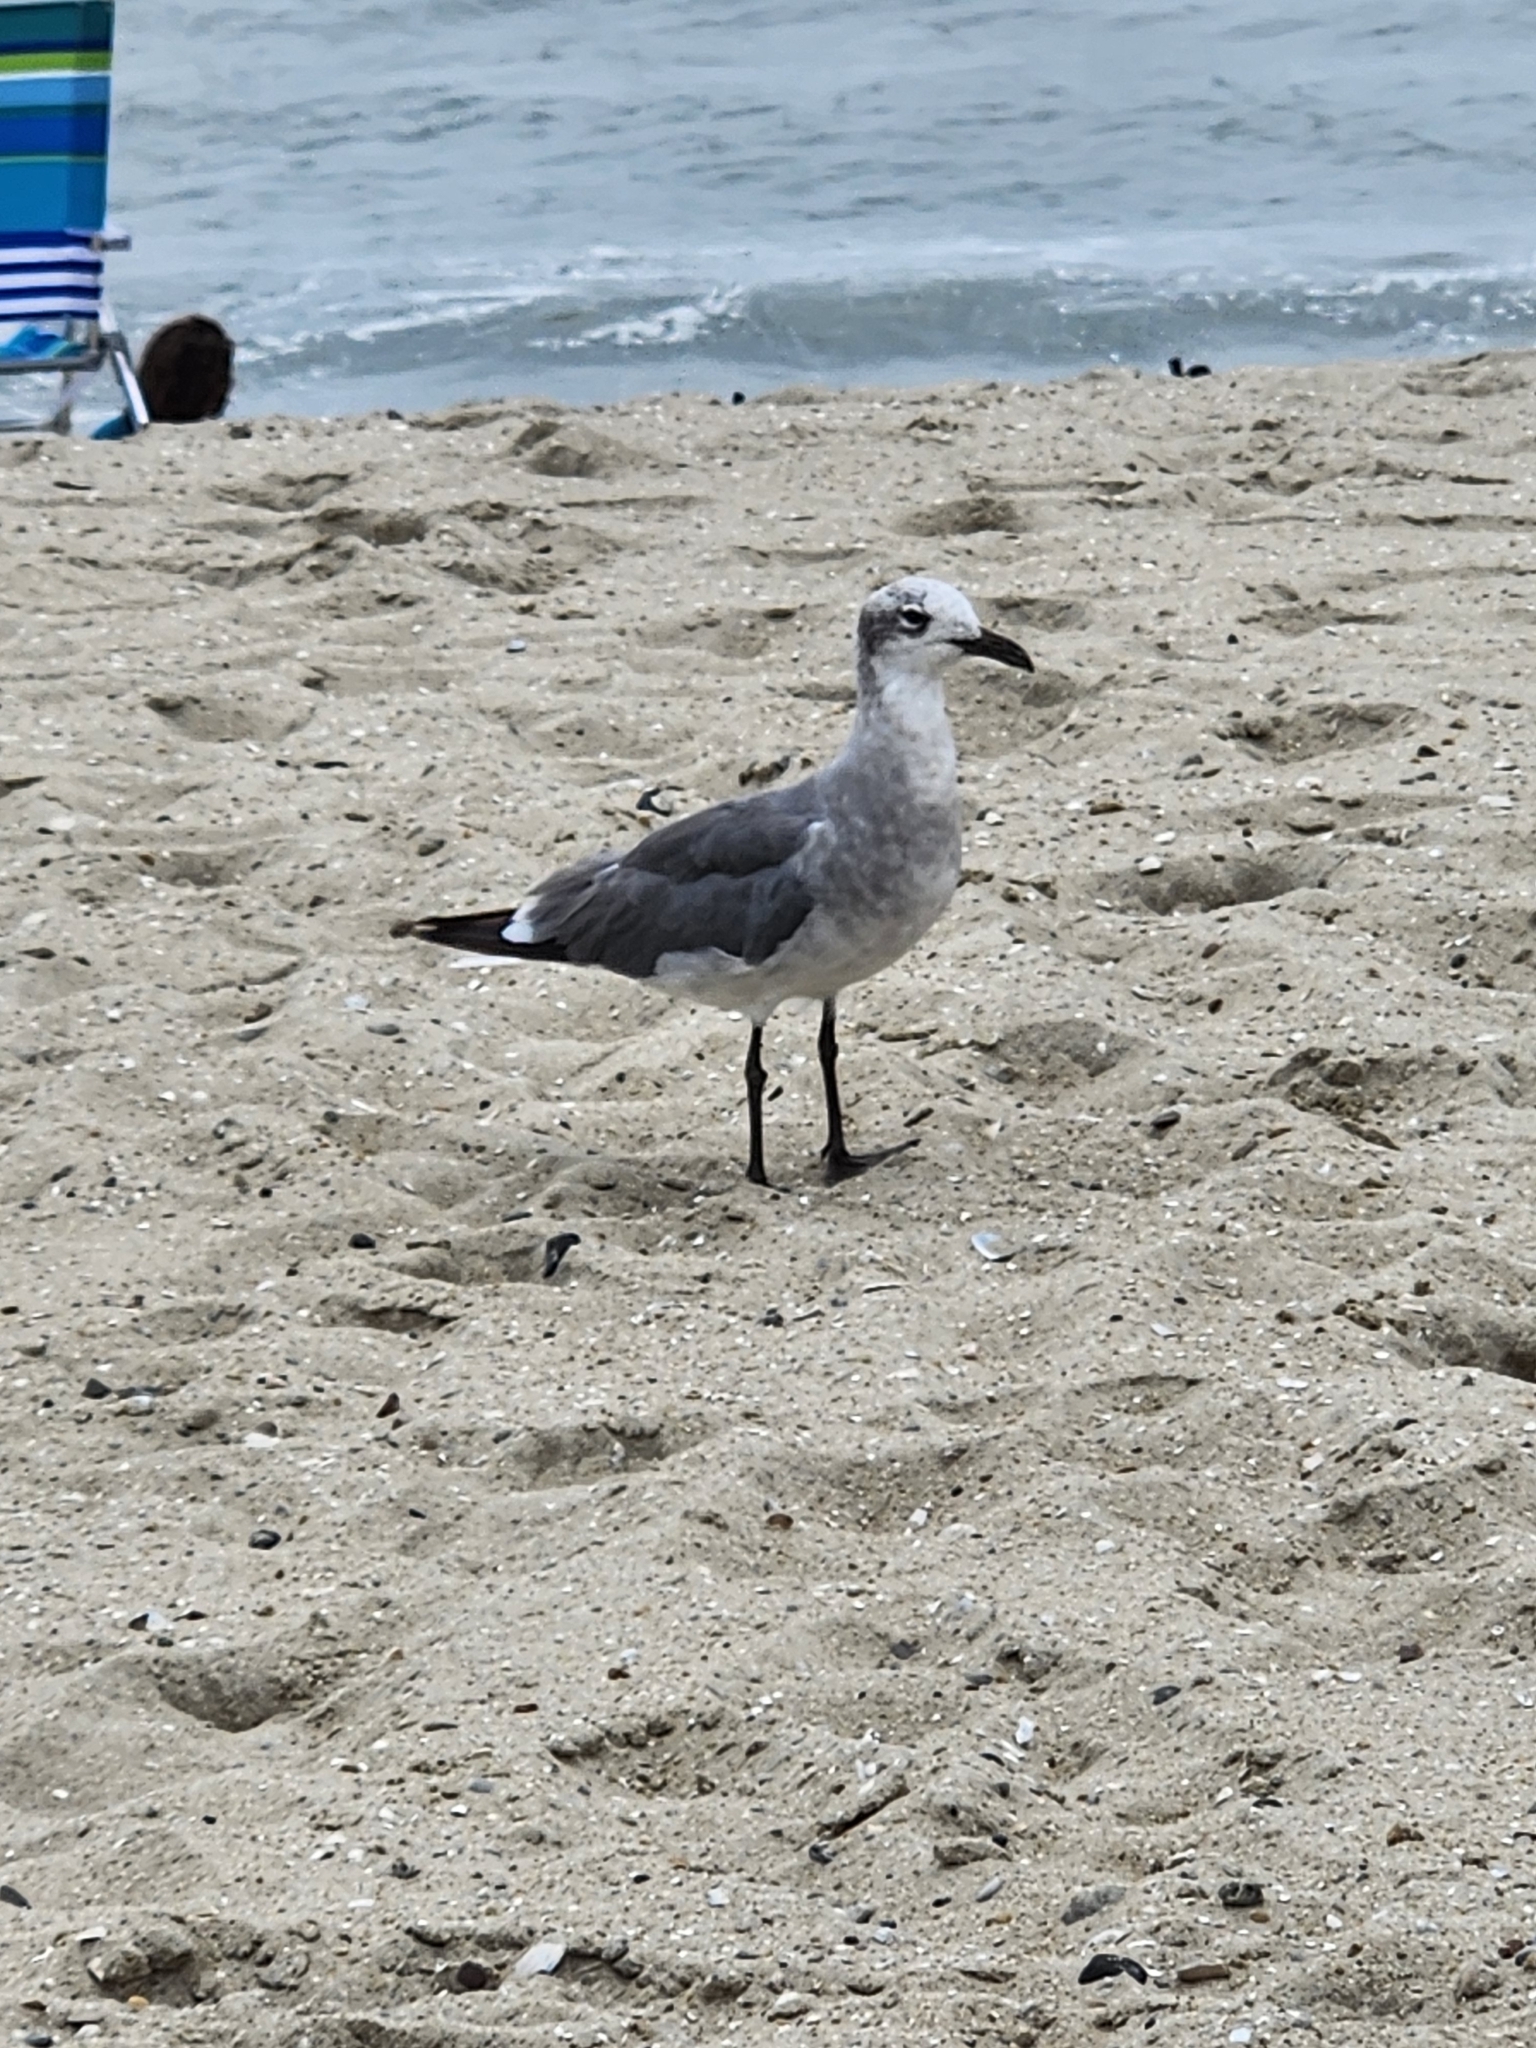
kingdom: Animalia
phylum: Chordata
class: Aves
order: Charadriiformes
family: Laridae
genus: Leucophaeus
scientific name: Leucophaeus atricilla
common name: Laughing gull
